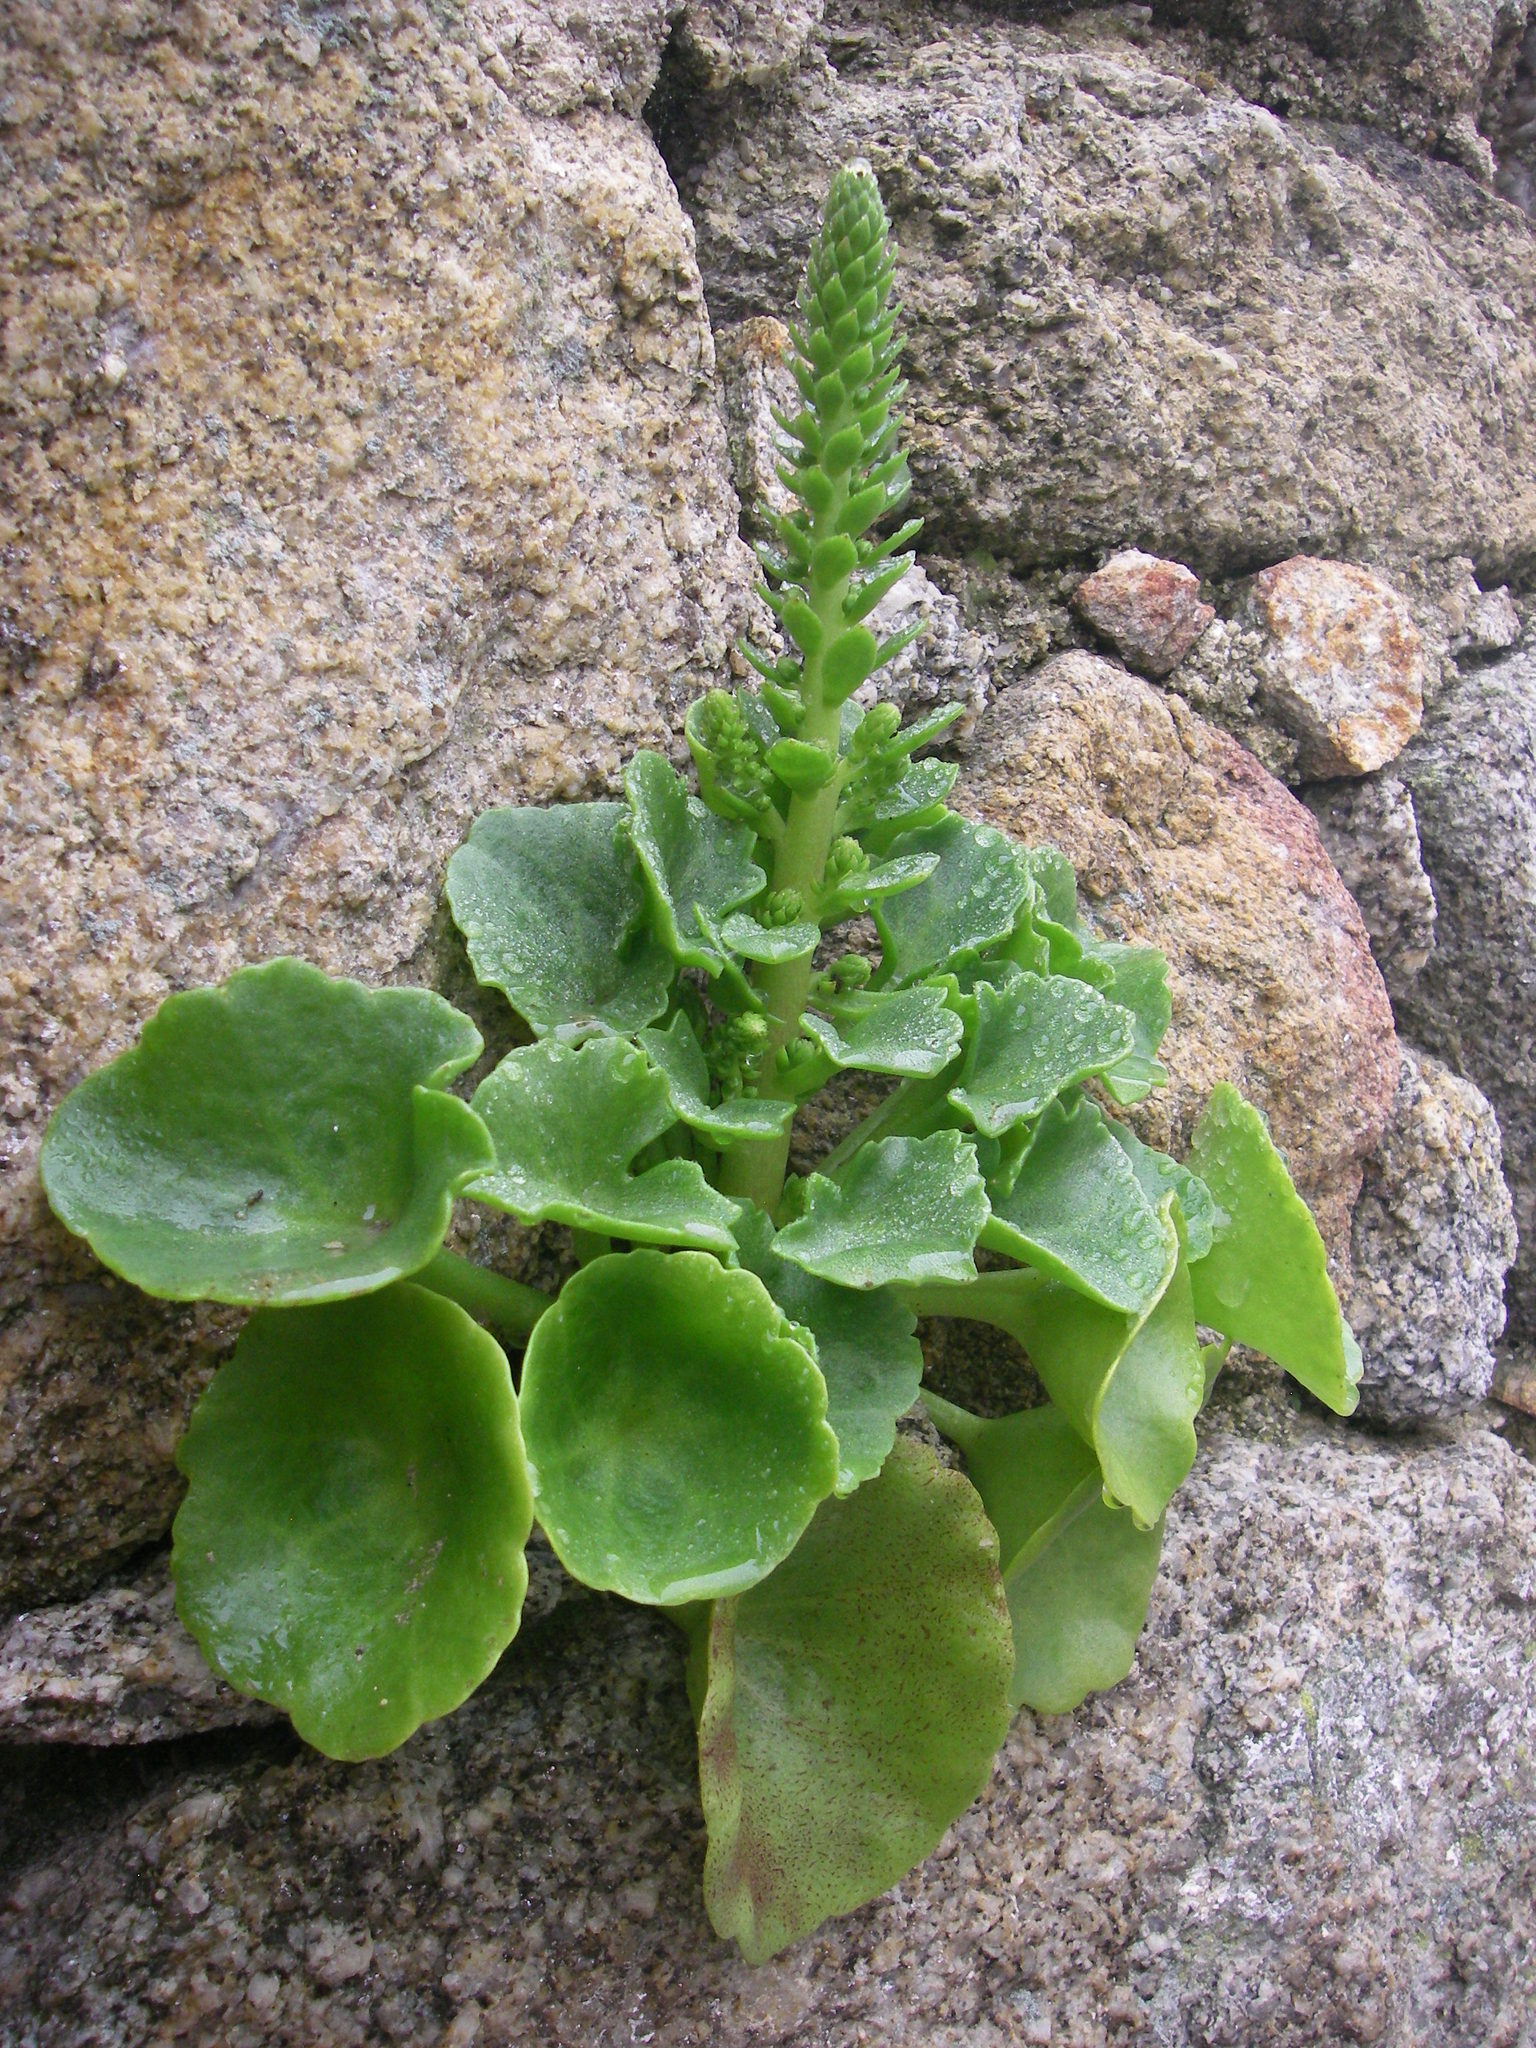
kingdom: Plantae
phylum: Tracheophyta
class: Magnoliopsida
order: Saxifragales
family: Crassulaceae
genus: Umbilicus
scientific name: Umbilicus rupestris
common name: Navelwort
